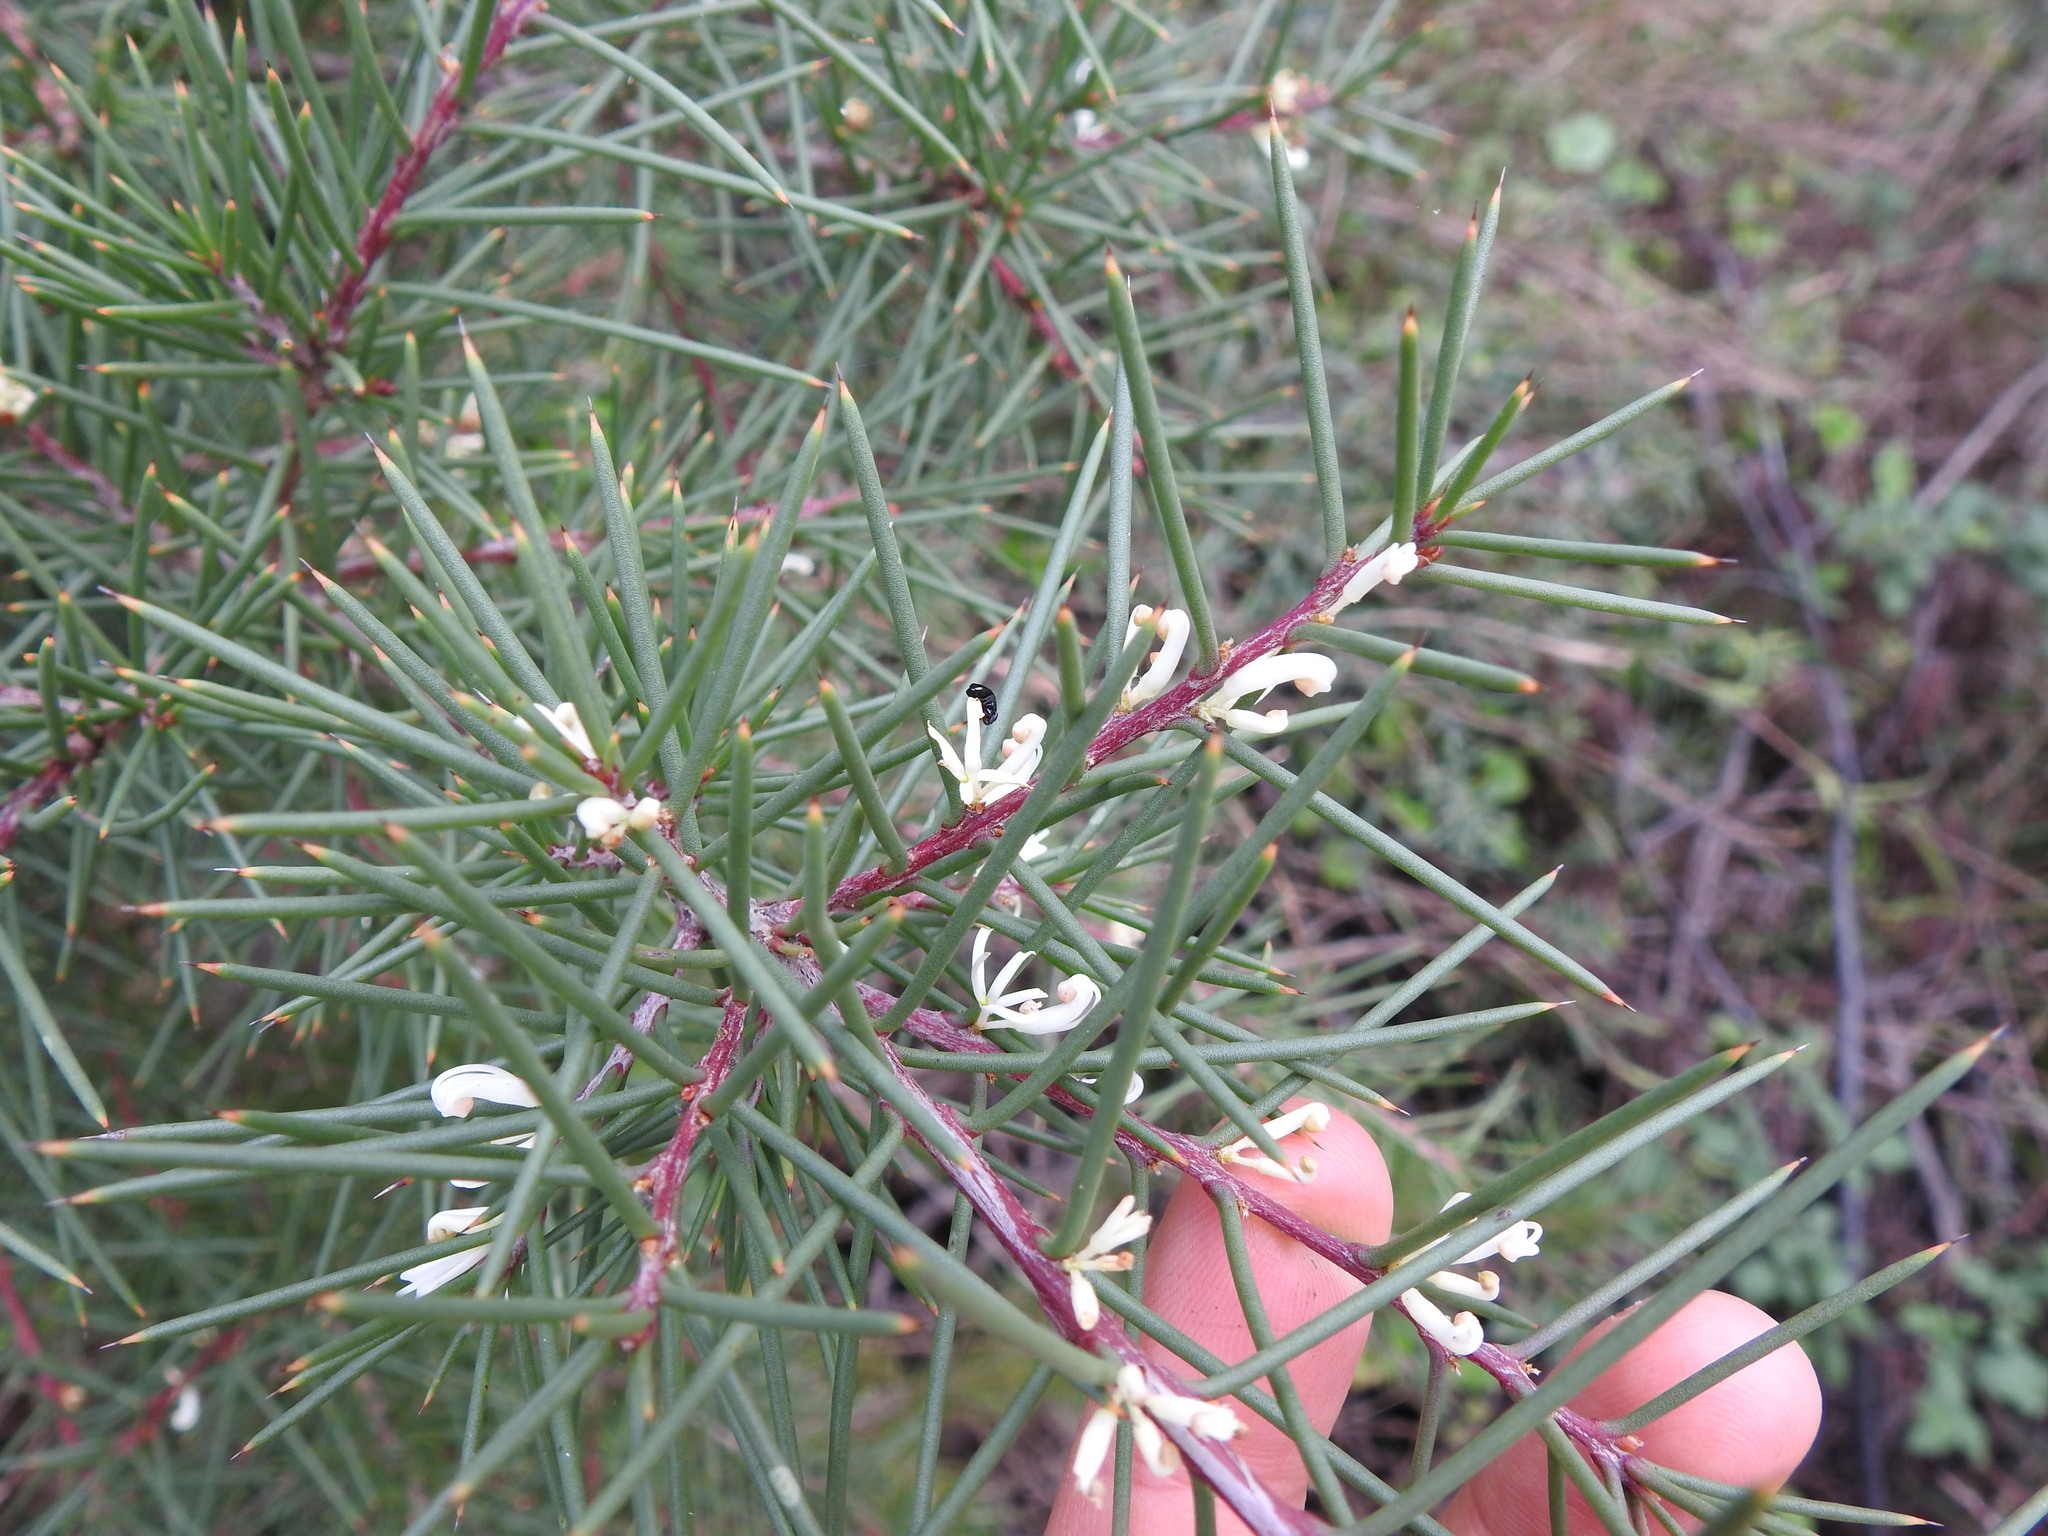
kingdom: Plantae
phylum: Tracheophyta
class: Magnoliopsida
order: Proteales
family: Proteaceae
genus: Hakea
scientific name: Hakea decurrens
